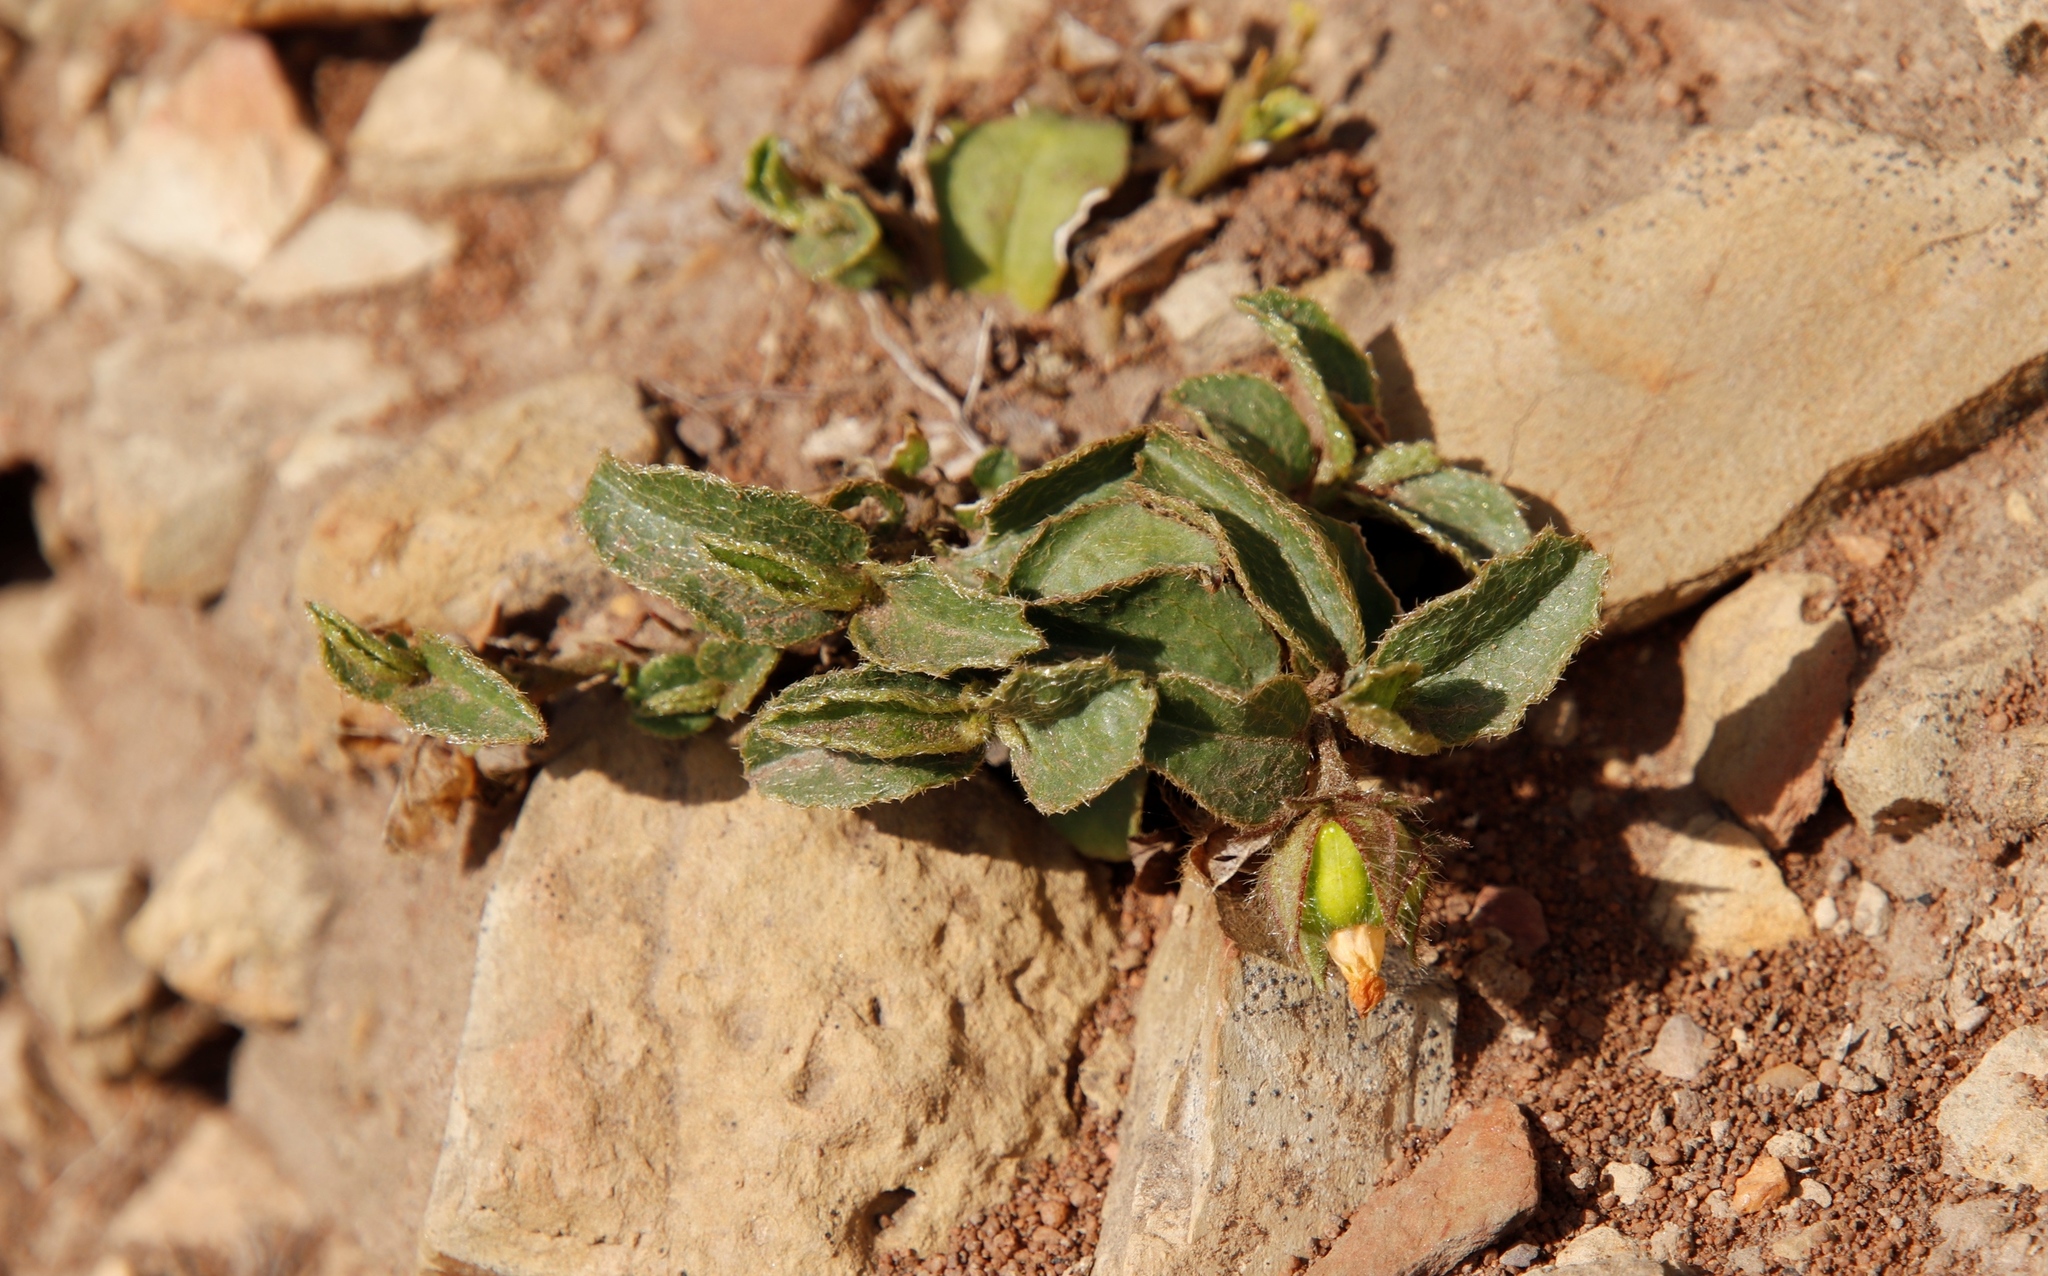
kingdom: Plantae
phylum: Tracheophyta
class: Magnoliopsida
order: Malvales
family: Malvaceae
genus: Hibiscus
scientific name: Hibiscus aethiopicus
